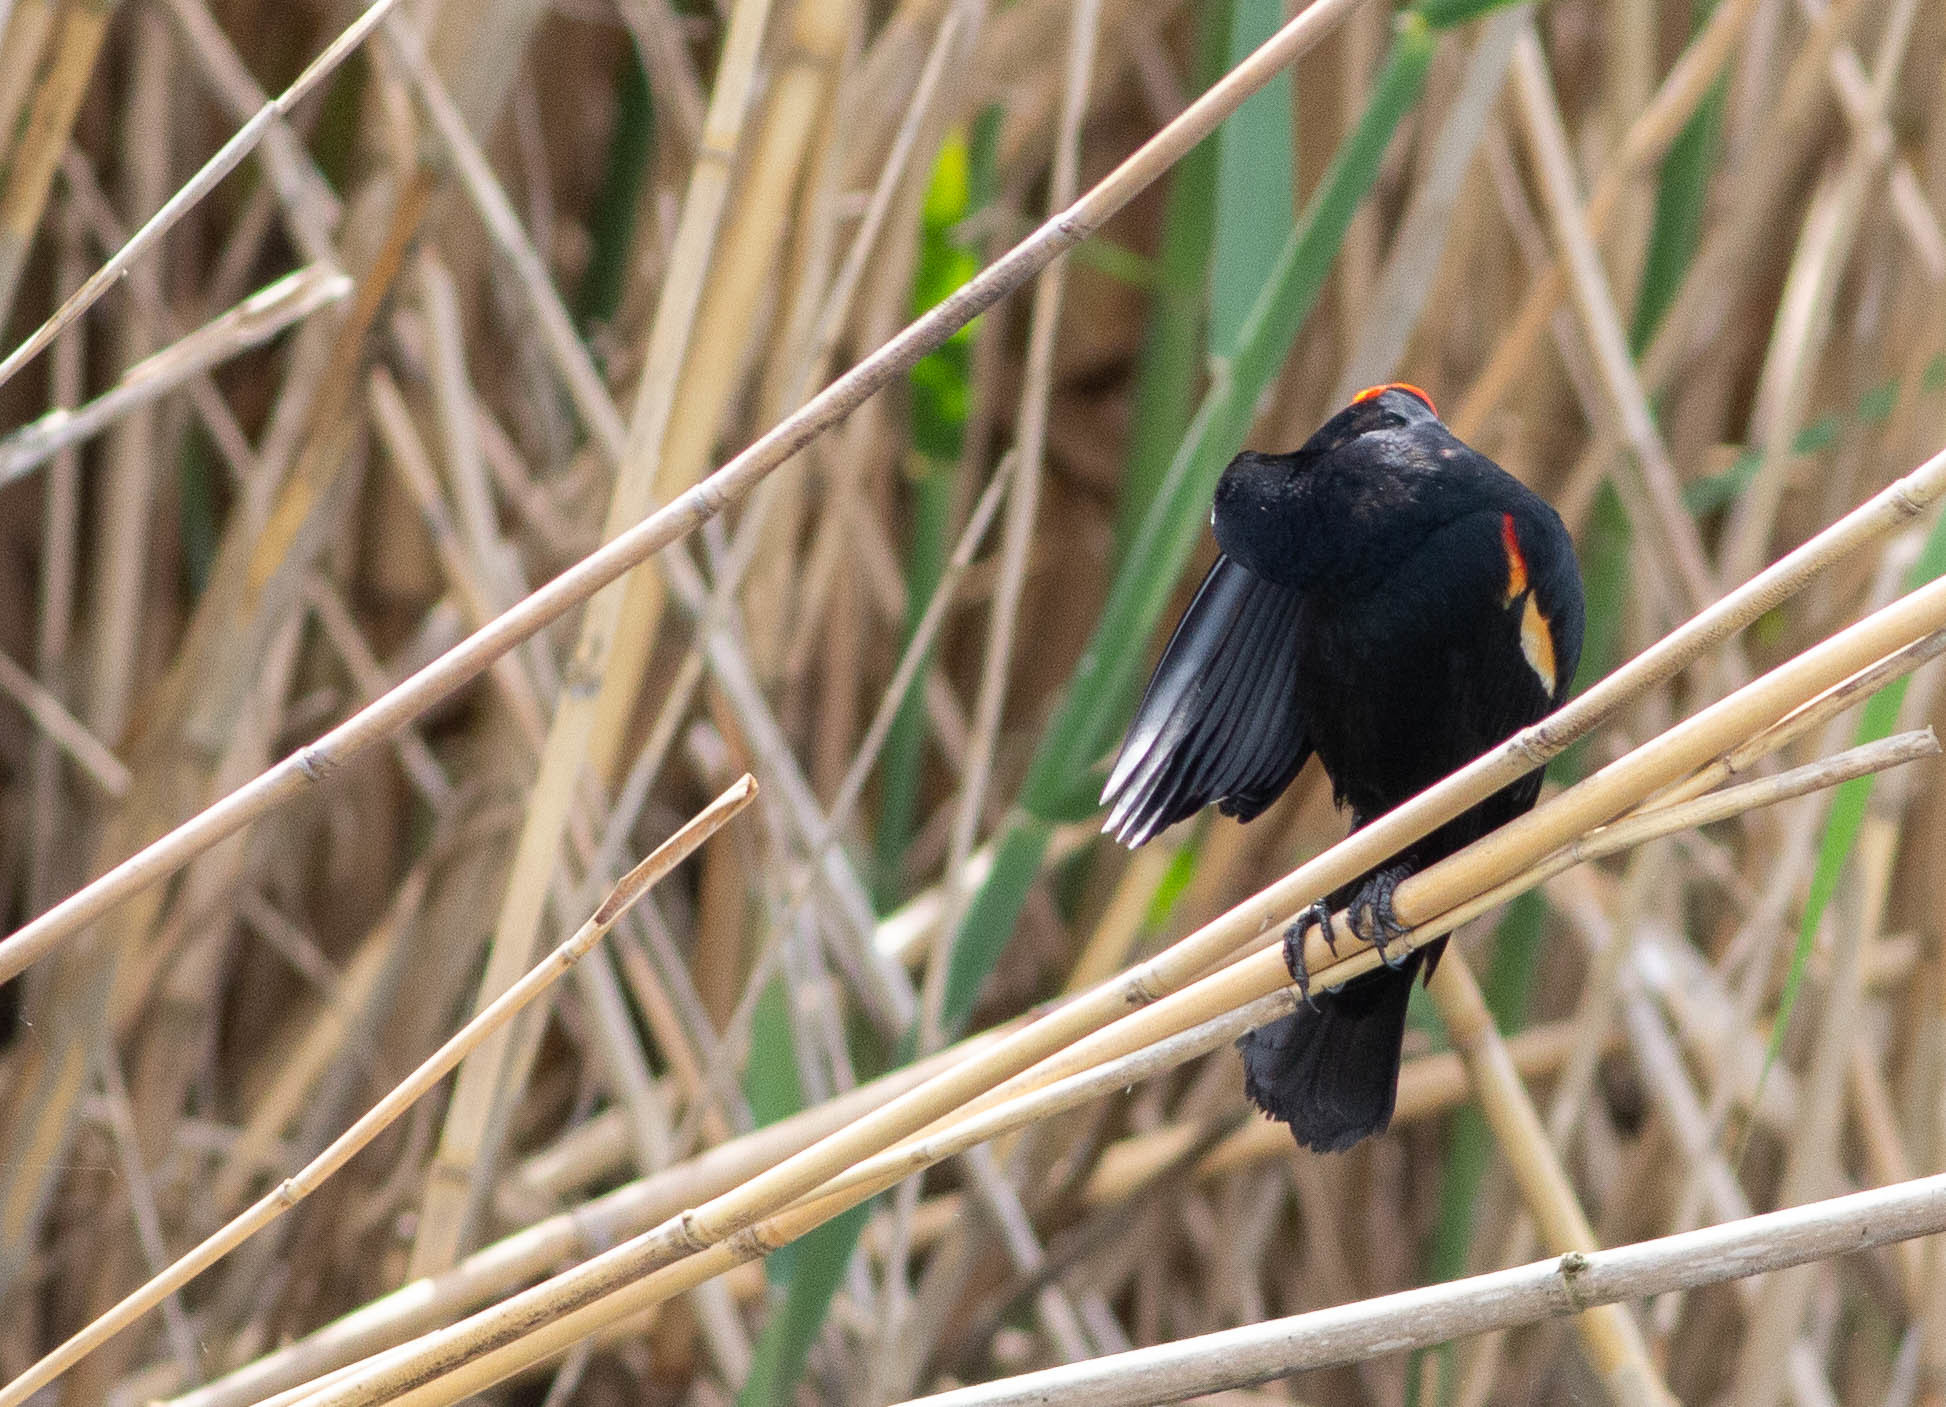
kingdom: Animalia
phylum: Chordata
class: Aves
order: Passeriformes
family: Icteridae
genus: Agelaius
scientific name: Agelaius phoeniceus
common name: Red-winged blackbird
